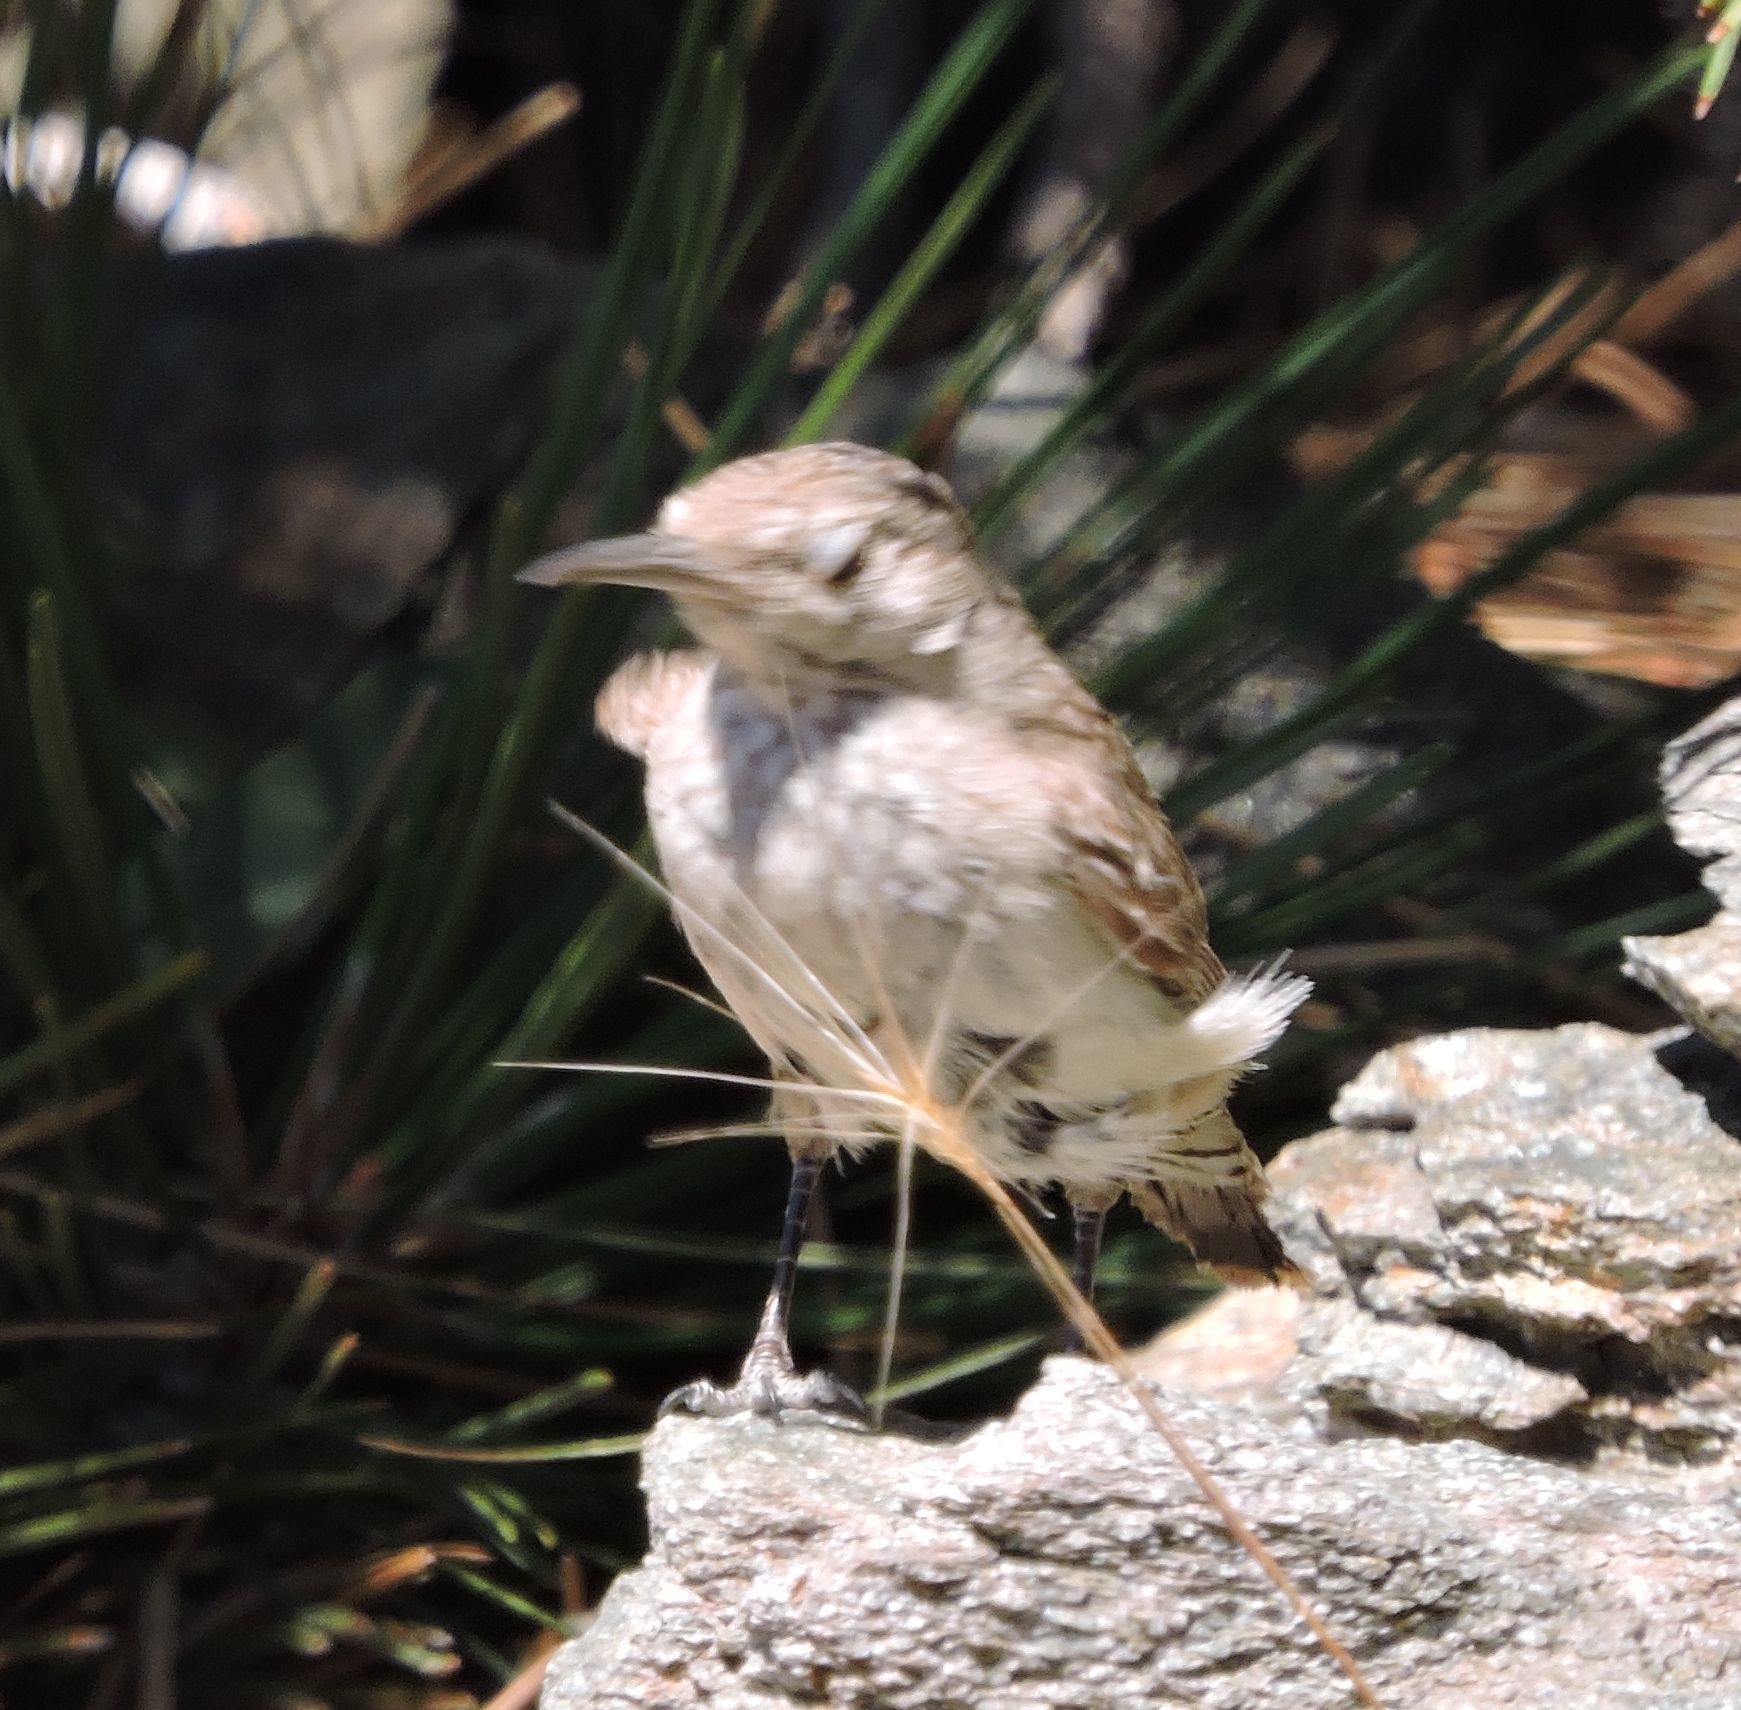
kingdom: Animalia
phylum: Chordata
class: Aves
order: Passeriformes
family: Troglodytidae
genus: Salpinctes
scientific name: Salpinctes obsoletus
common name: Rock wren
